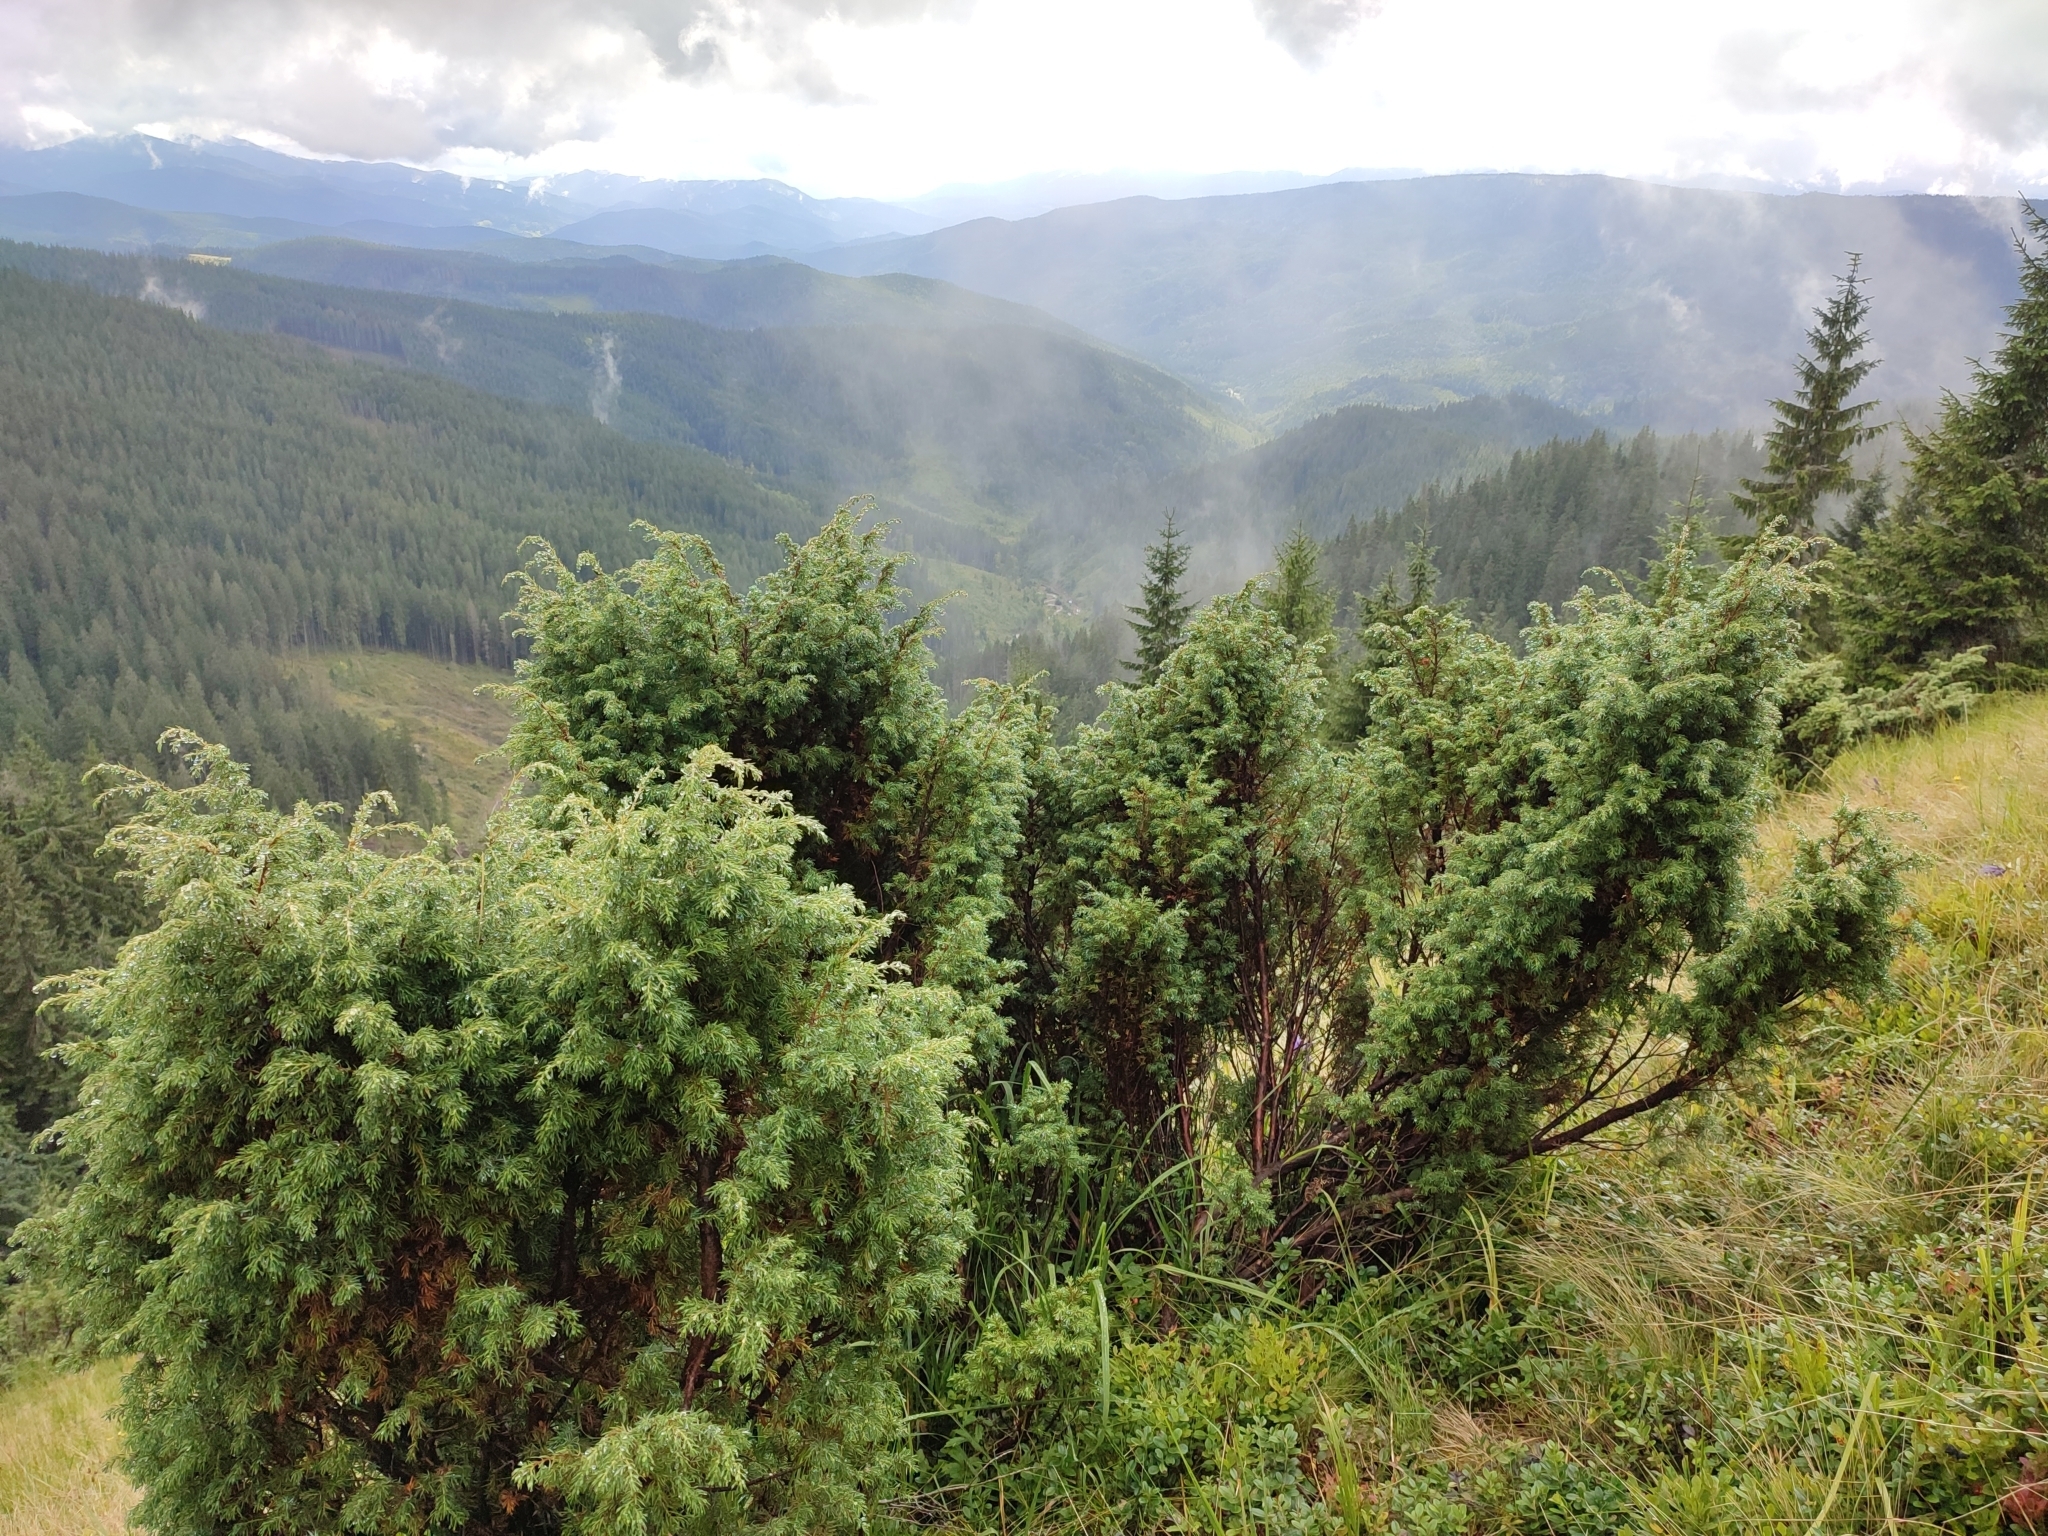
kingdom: Plantae
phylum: Tracheophyta
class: Pinopsida
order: Pinales
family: Cupressaceae
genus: Juniperus
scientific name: Juniperus communis
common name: Common juniper
